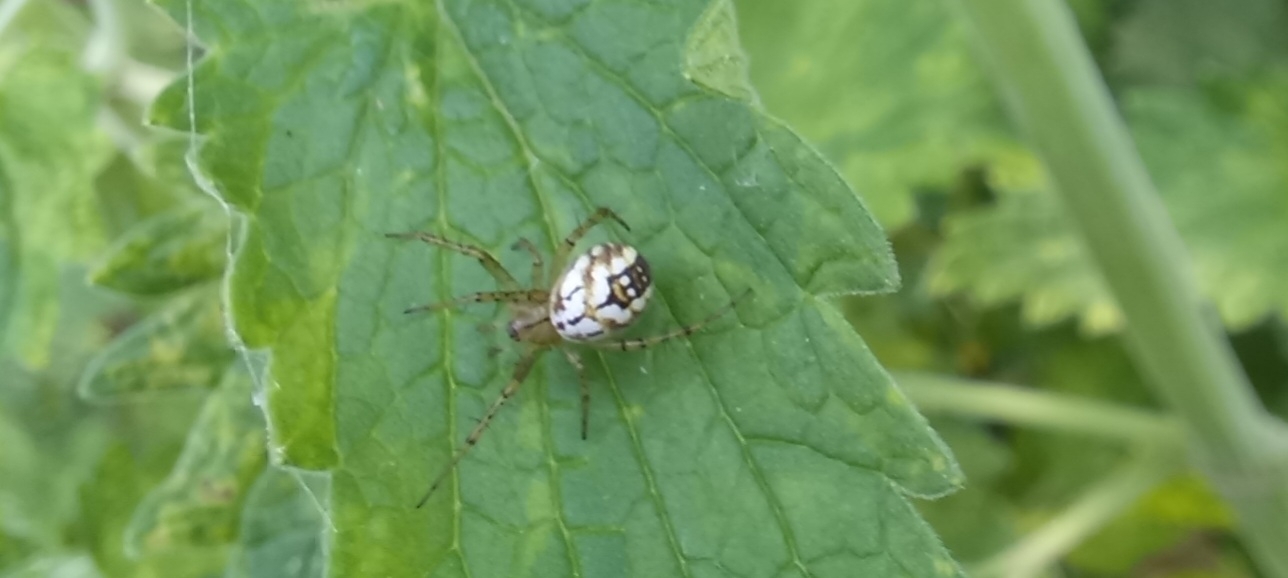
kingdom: Animalia
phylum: Arthropoda
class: Arachnida
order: Araneae
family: Araneidae
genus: Mangora
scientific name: Mangora acalypha
